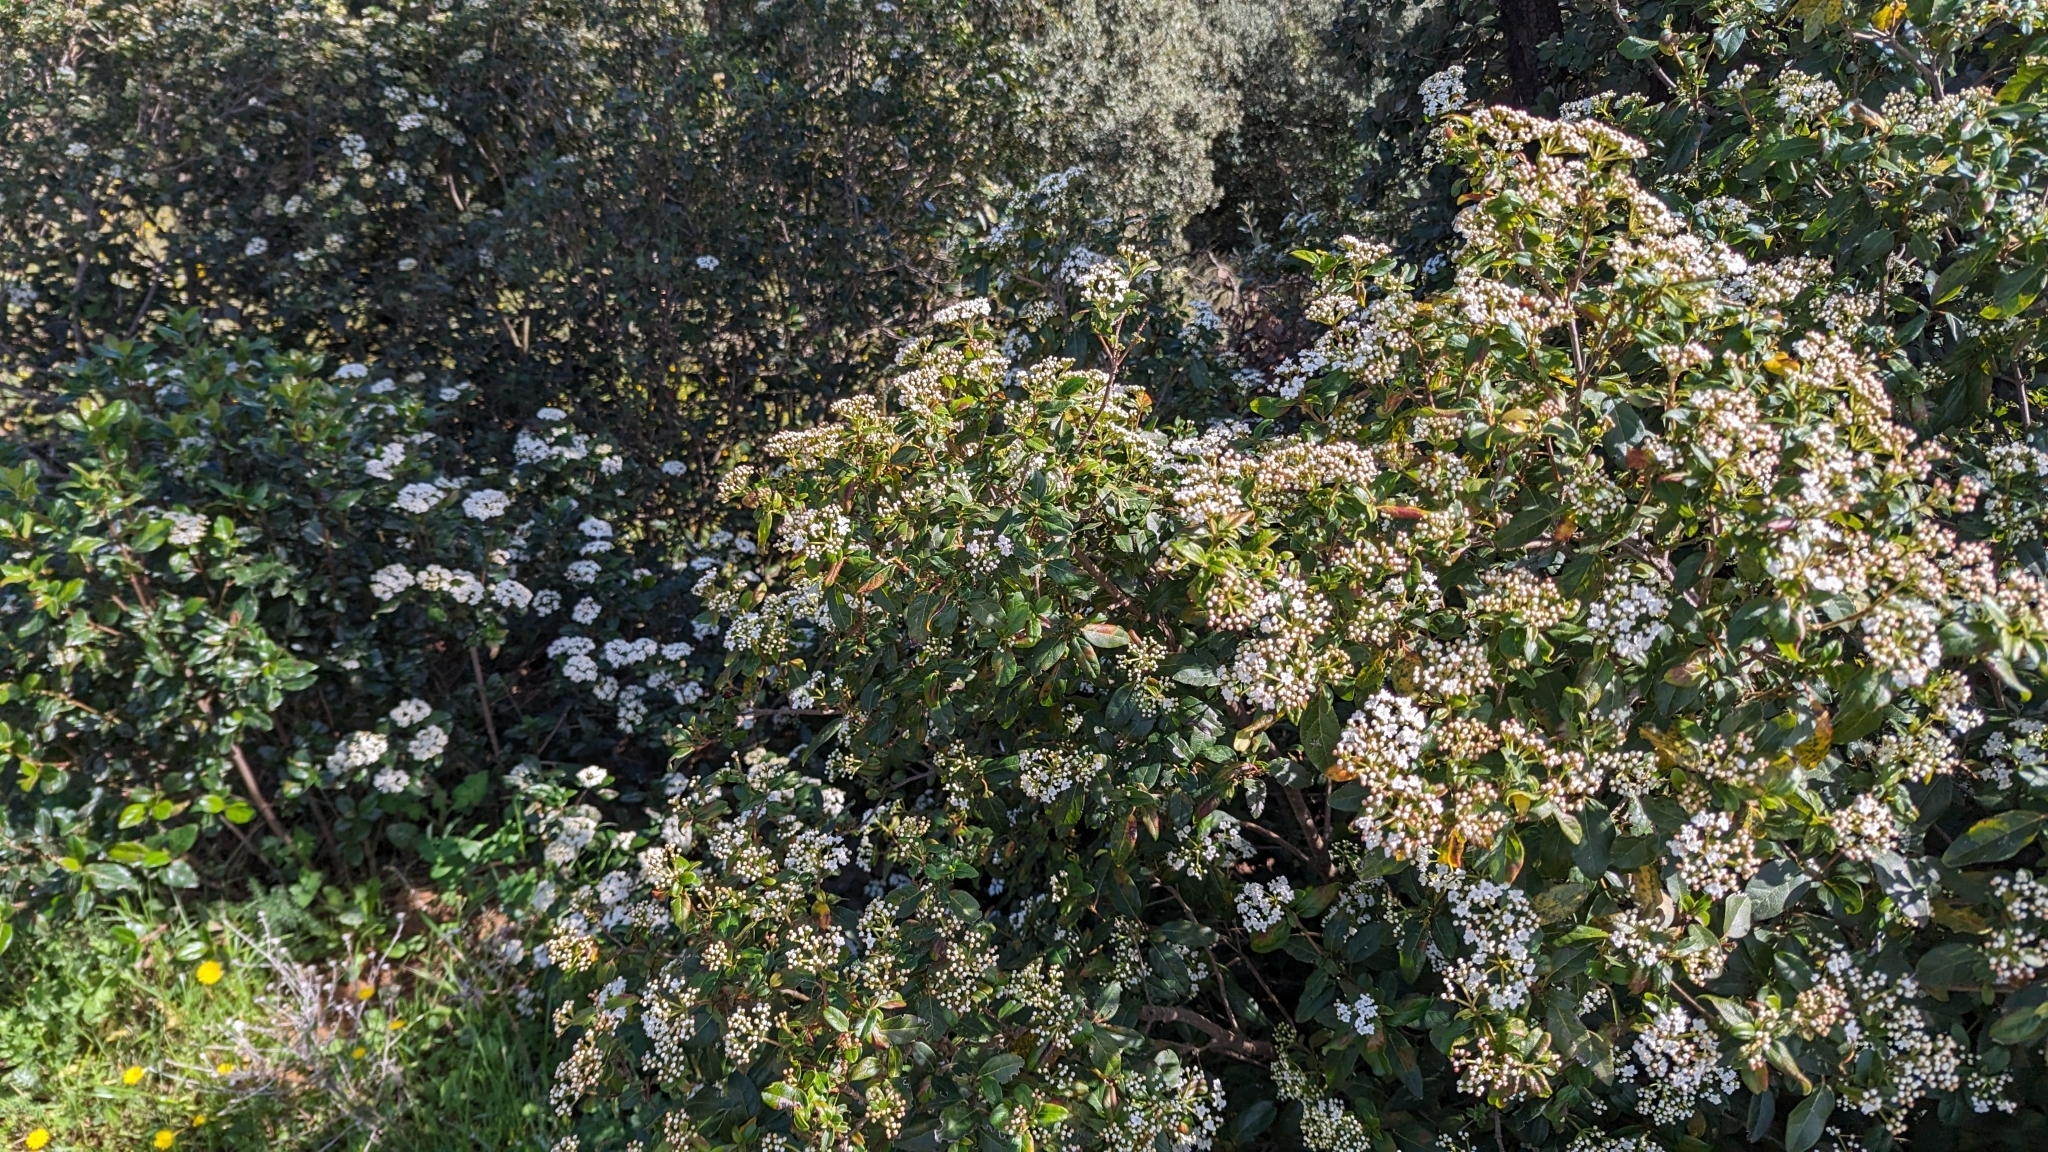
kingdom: Plantae
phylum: Tracheophyta
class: Magnoliopsida
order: Dipsacales
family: Viburnaceae
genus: Viburnum
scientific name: Viburnum tinus
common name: Laurustinus
